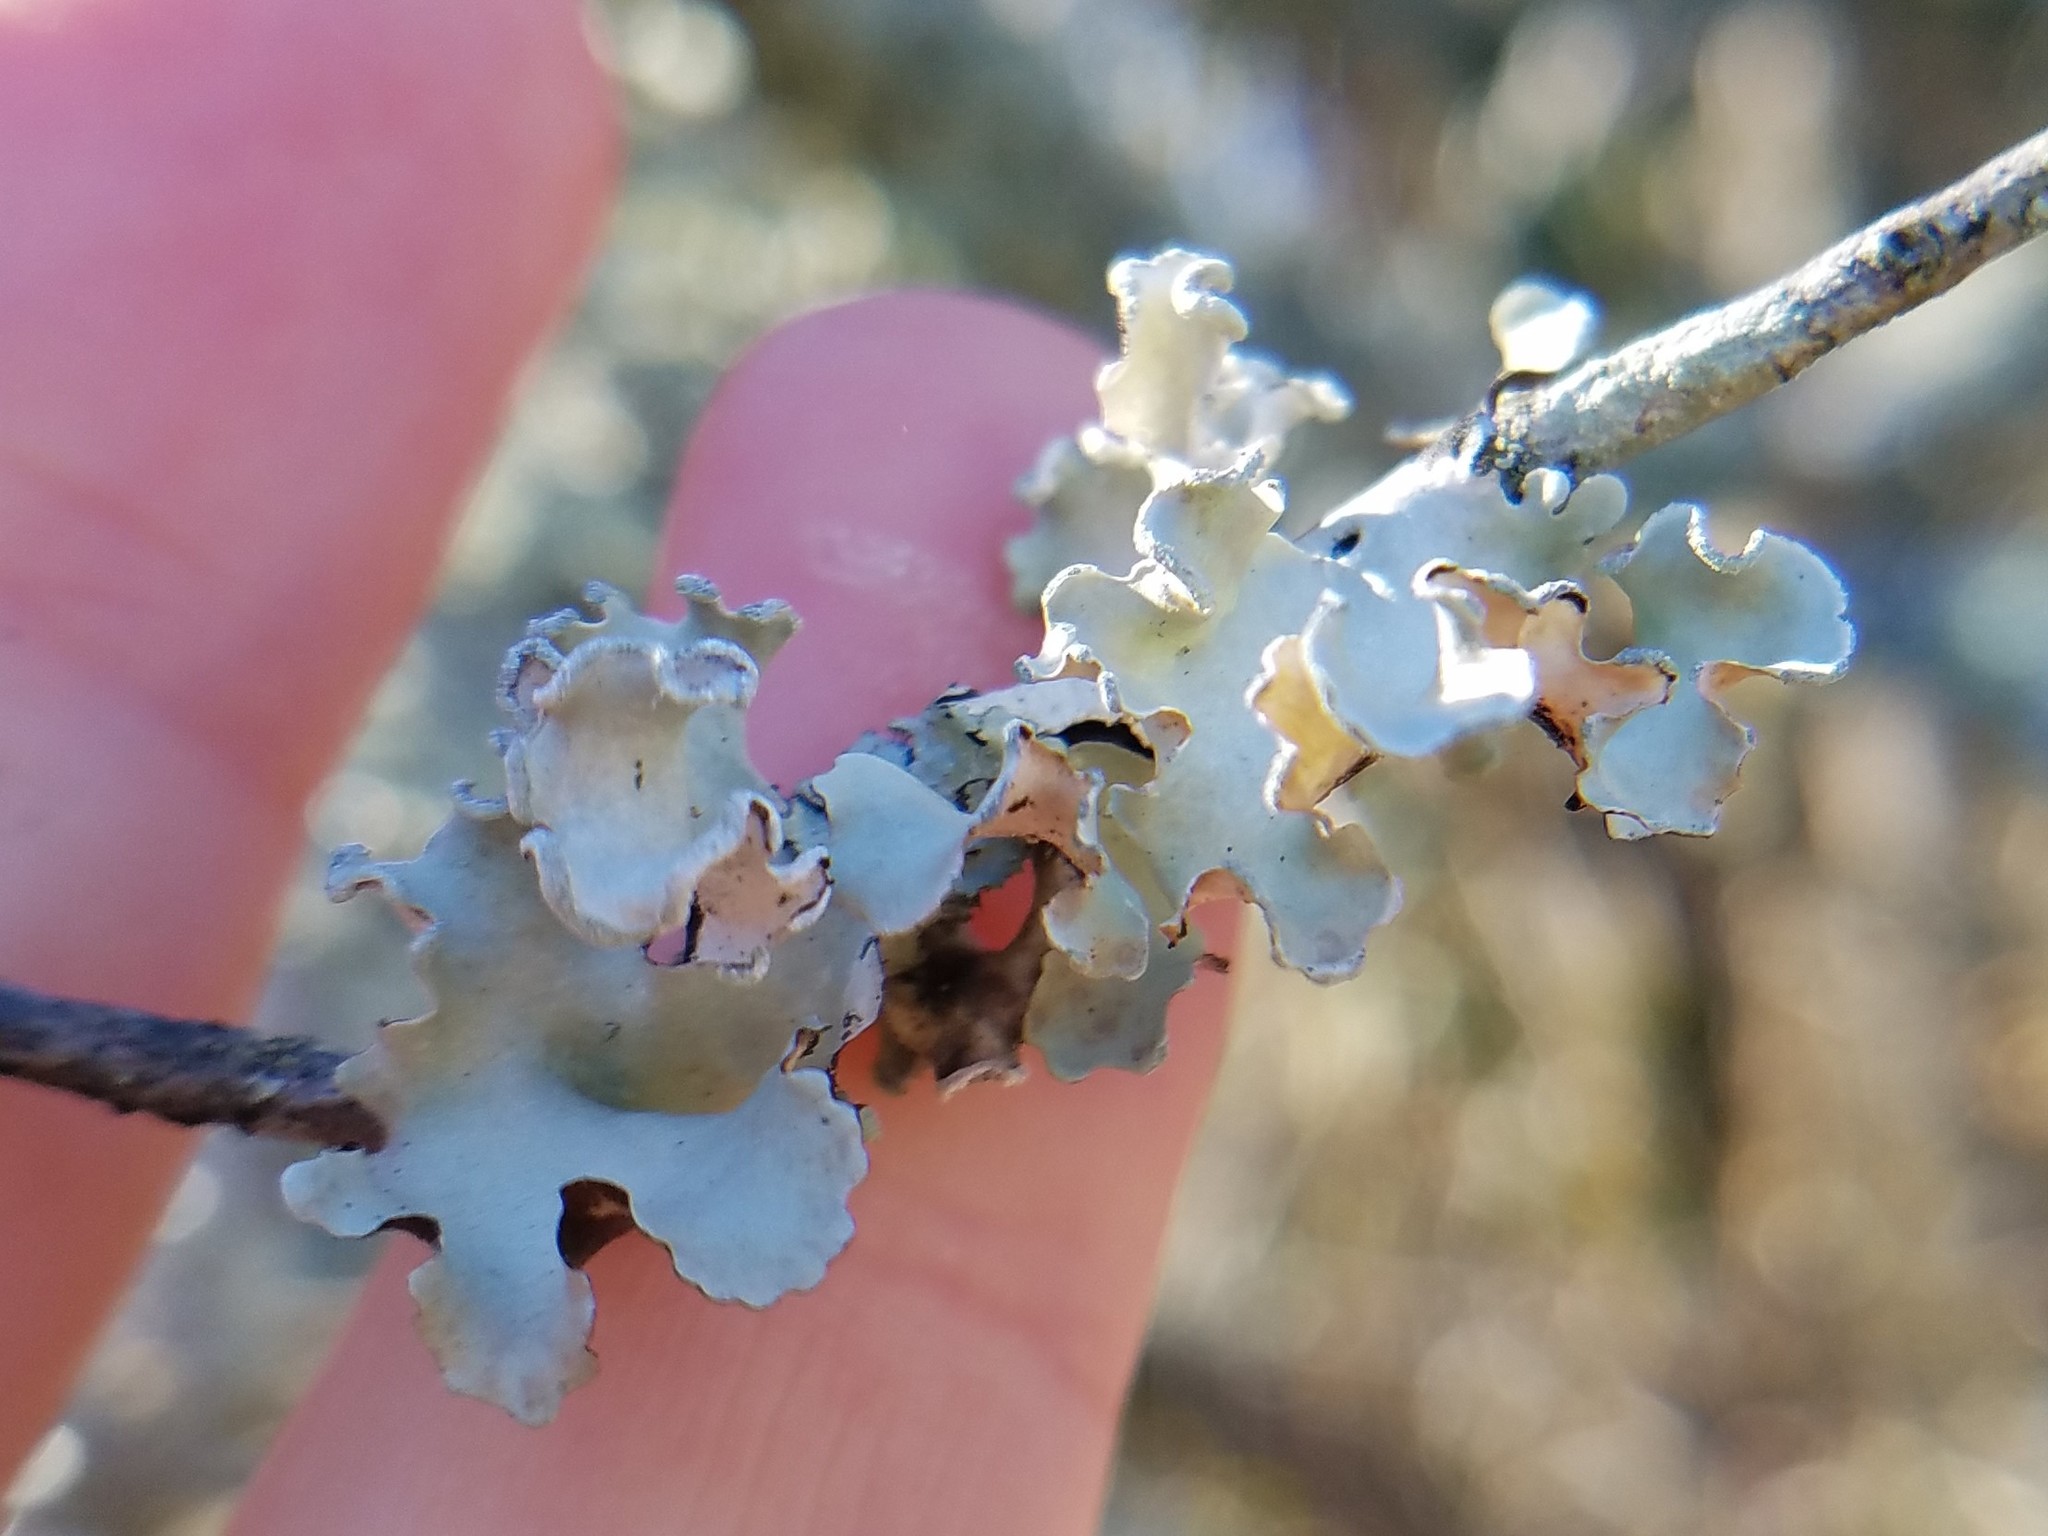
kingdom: Fungi
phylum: Ascomycota
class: Lecanoromycetes
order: Lecanorales
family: Parmeliaceae
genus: Parmotrema
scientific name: Parmotrema austrosinense
